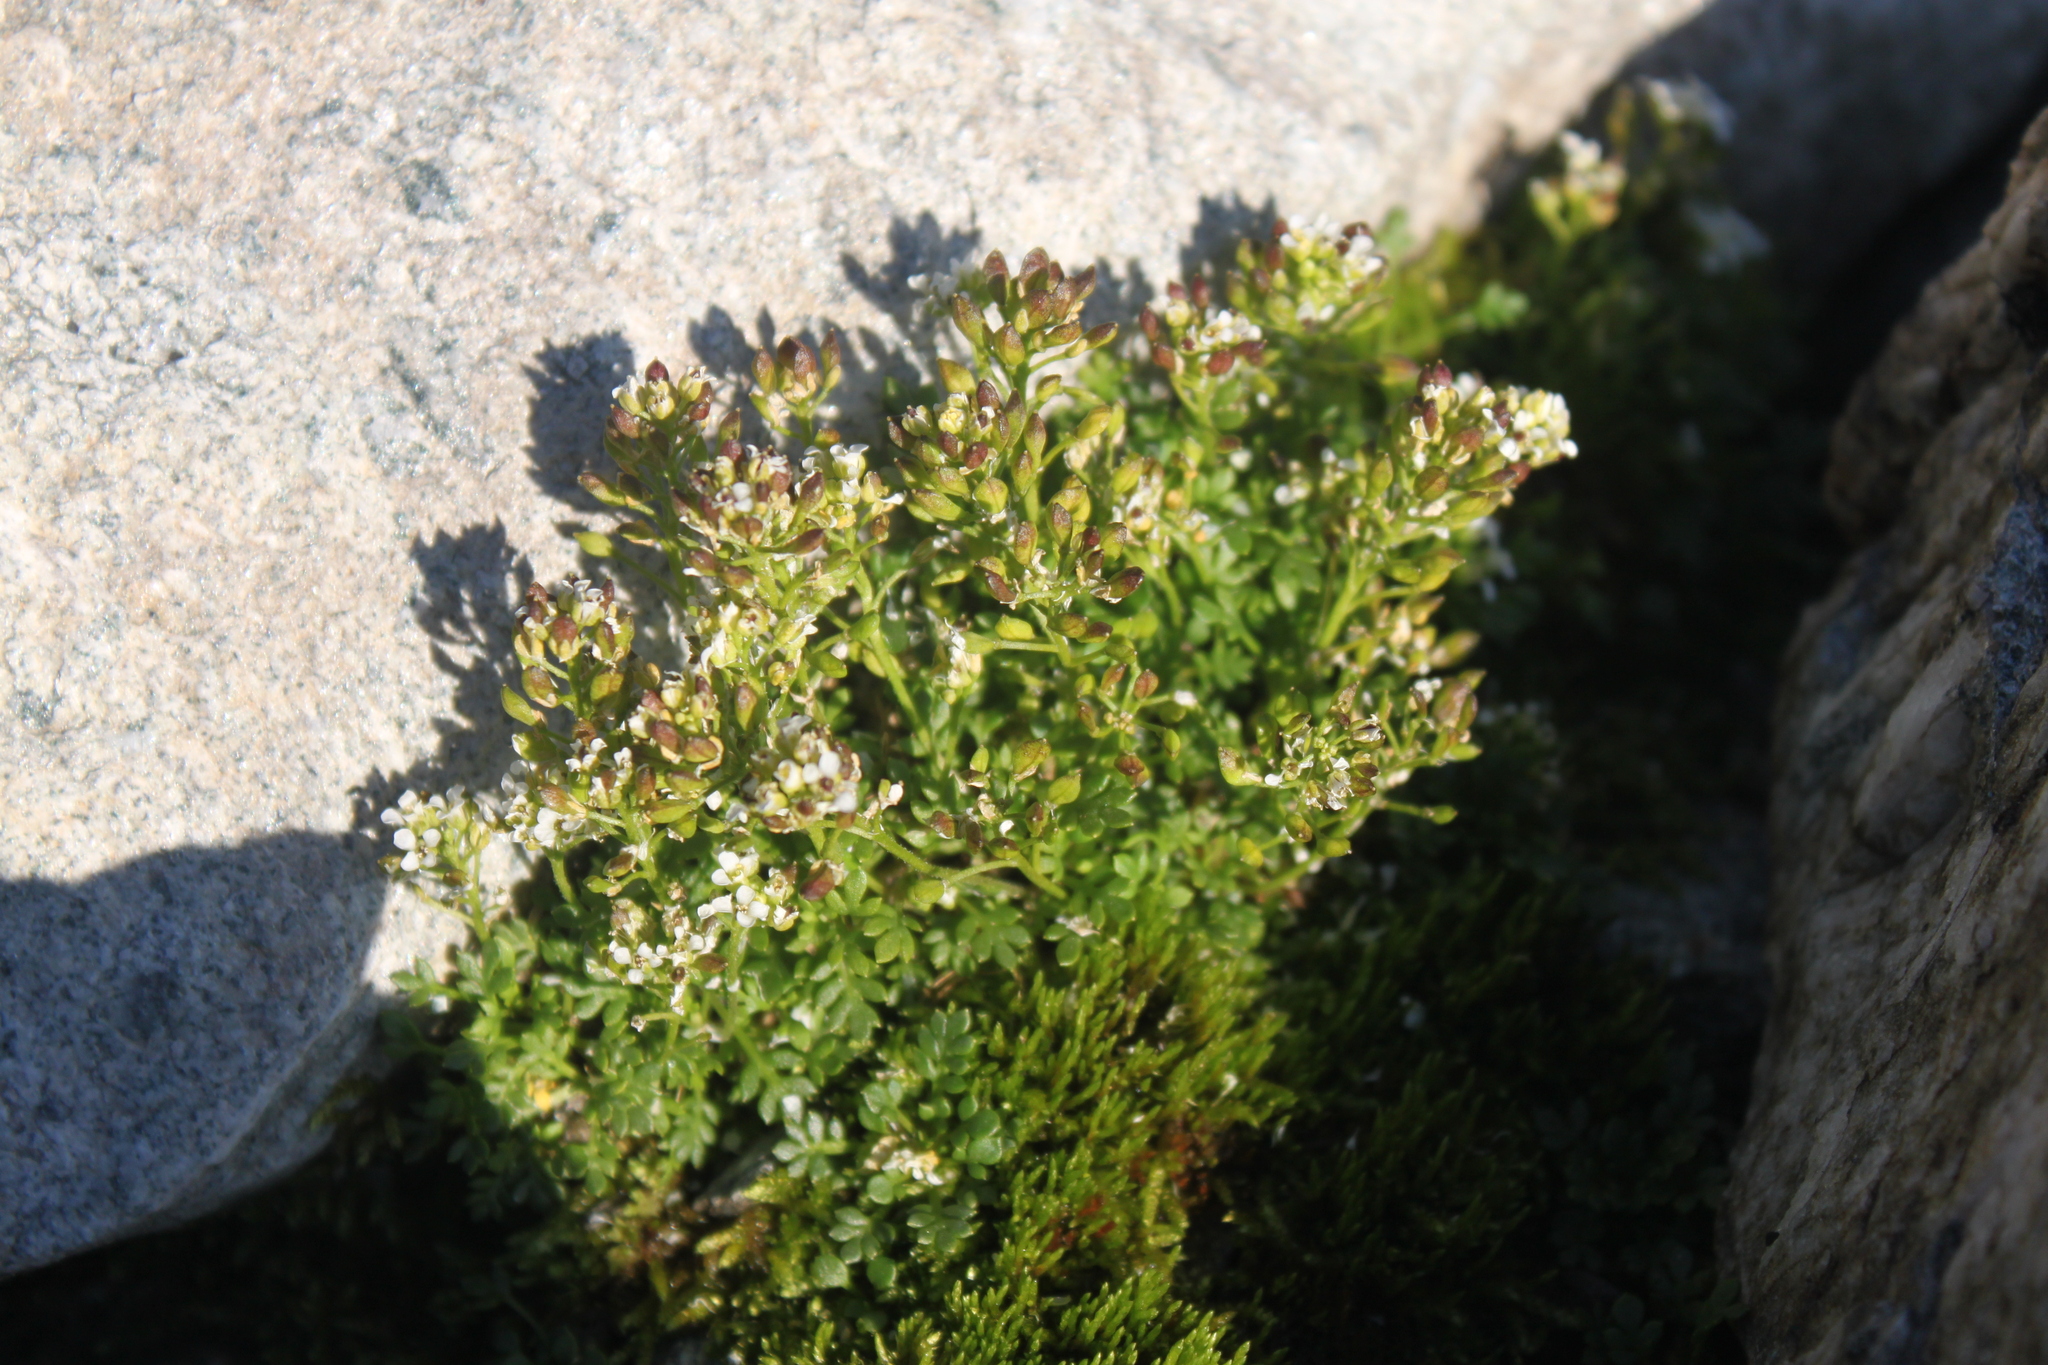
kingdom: Plantae
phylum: Tracheophyta
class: Magnoliopsida
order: Brassicales
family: Brassicaceae
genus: Hornungia
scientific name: Hornungia alpina
